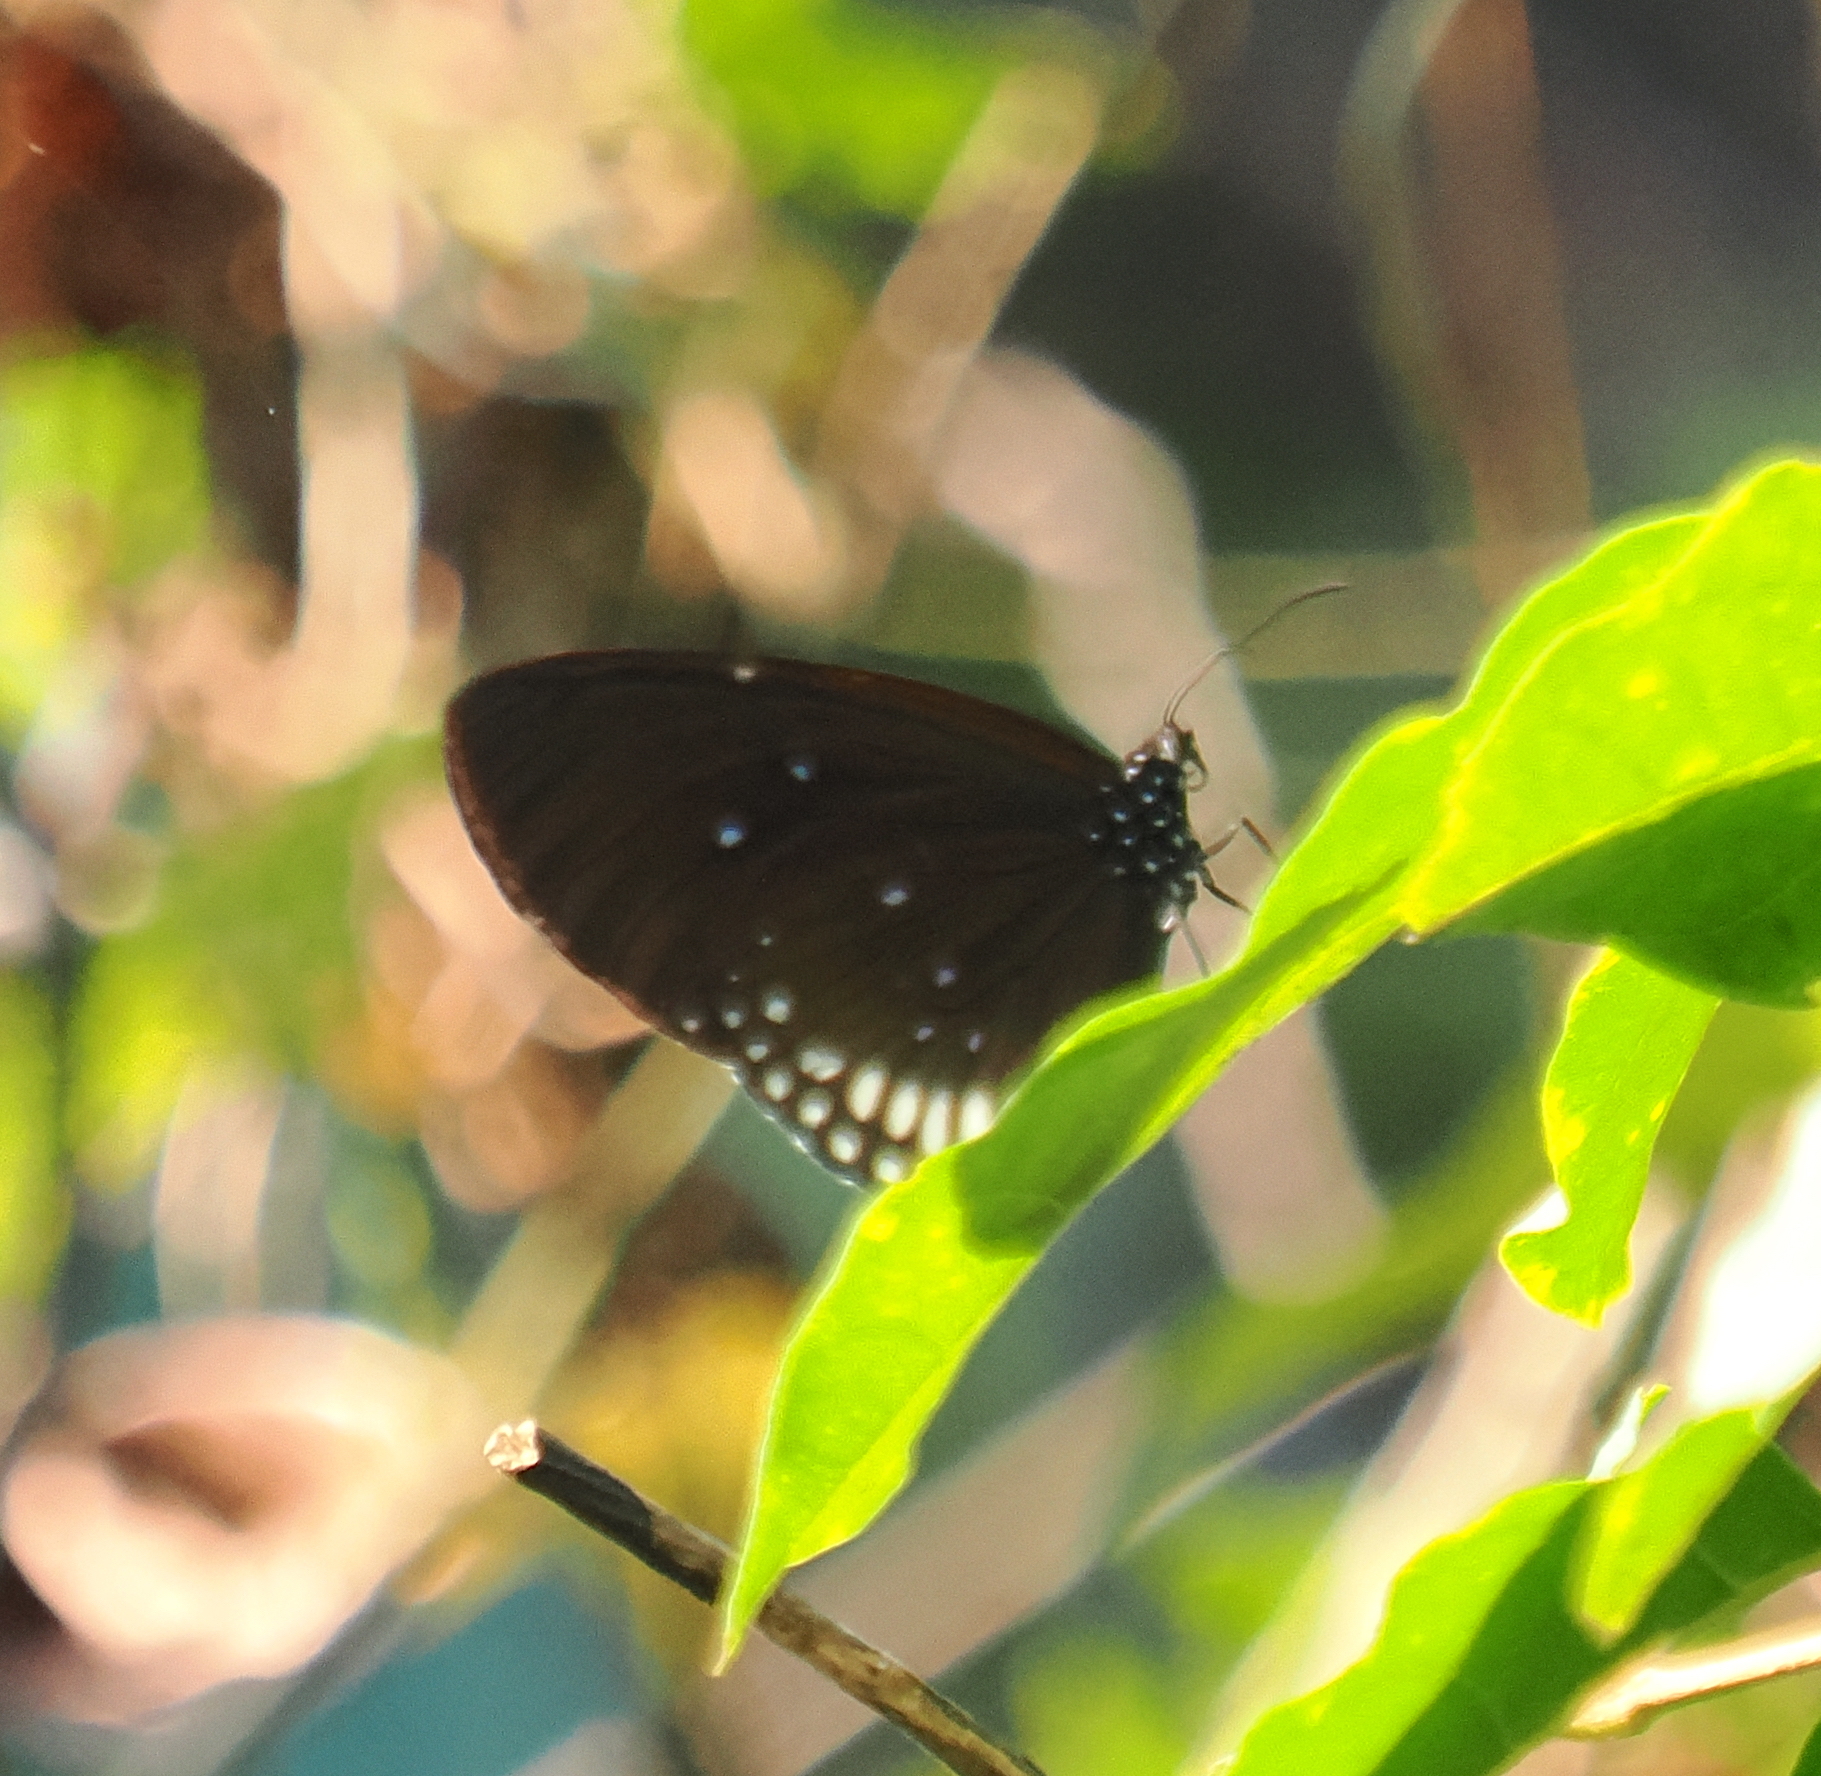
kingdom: Animalia
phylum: Arthropoda
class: Insecta
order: Lepidoptera
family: Nymphalidae
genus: Euploea
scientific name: Euploea sylvester
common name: Double-branded crow butterfly
